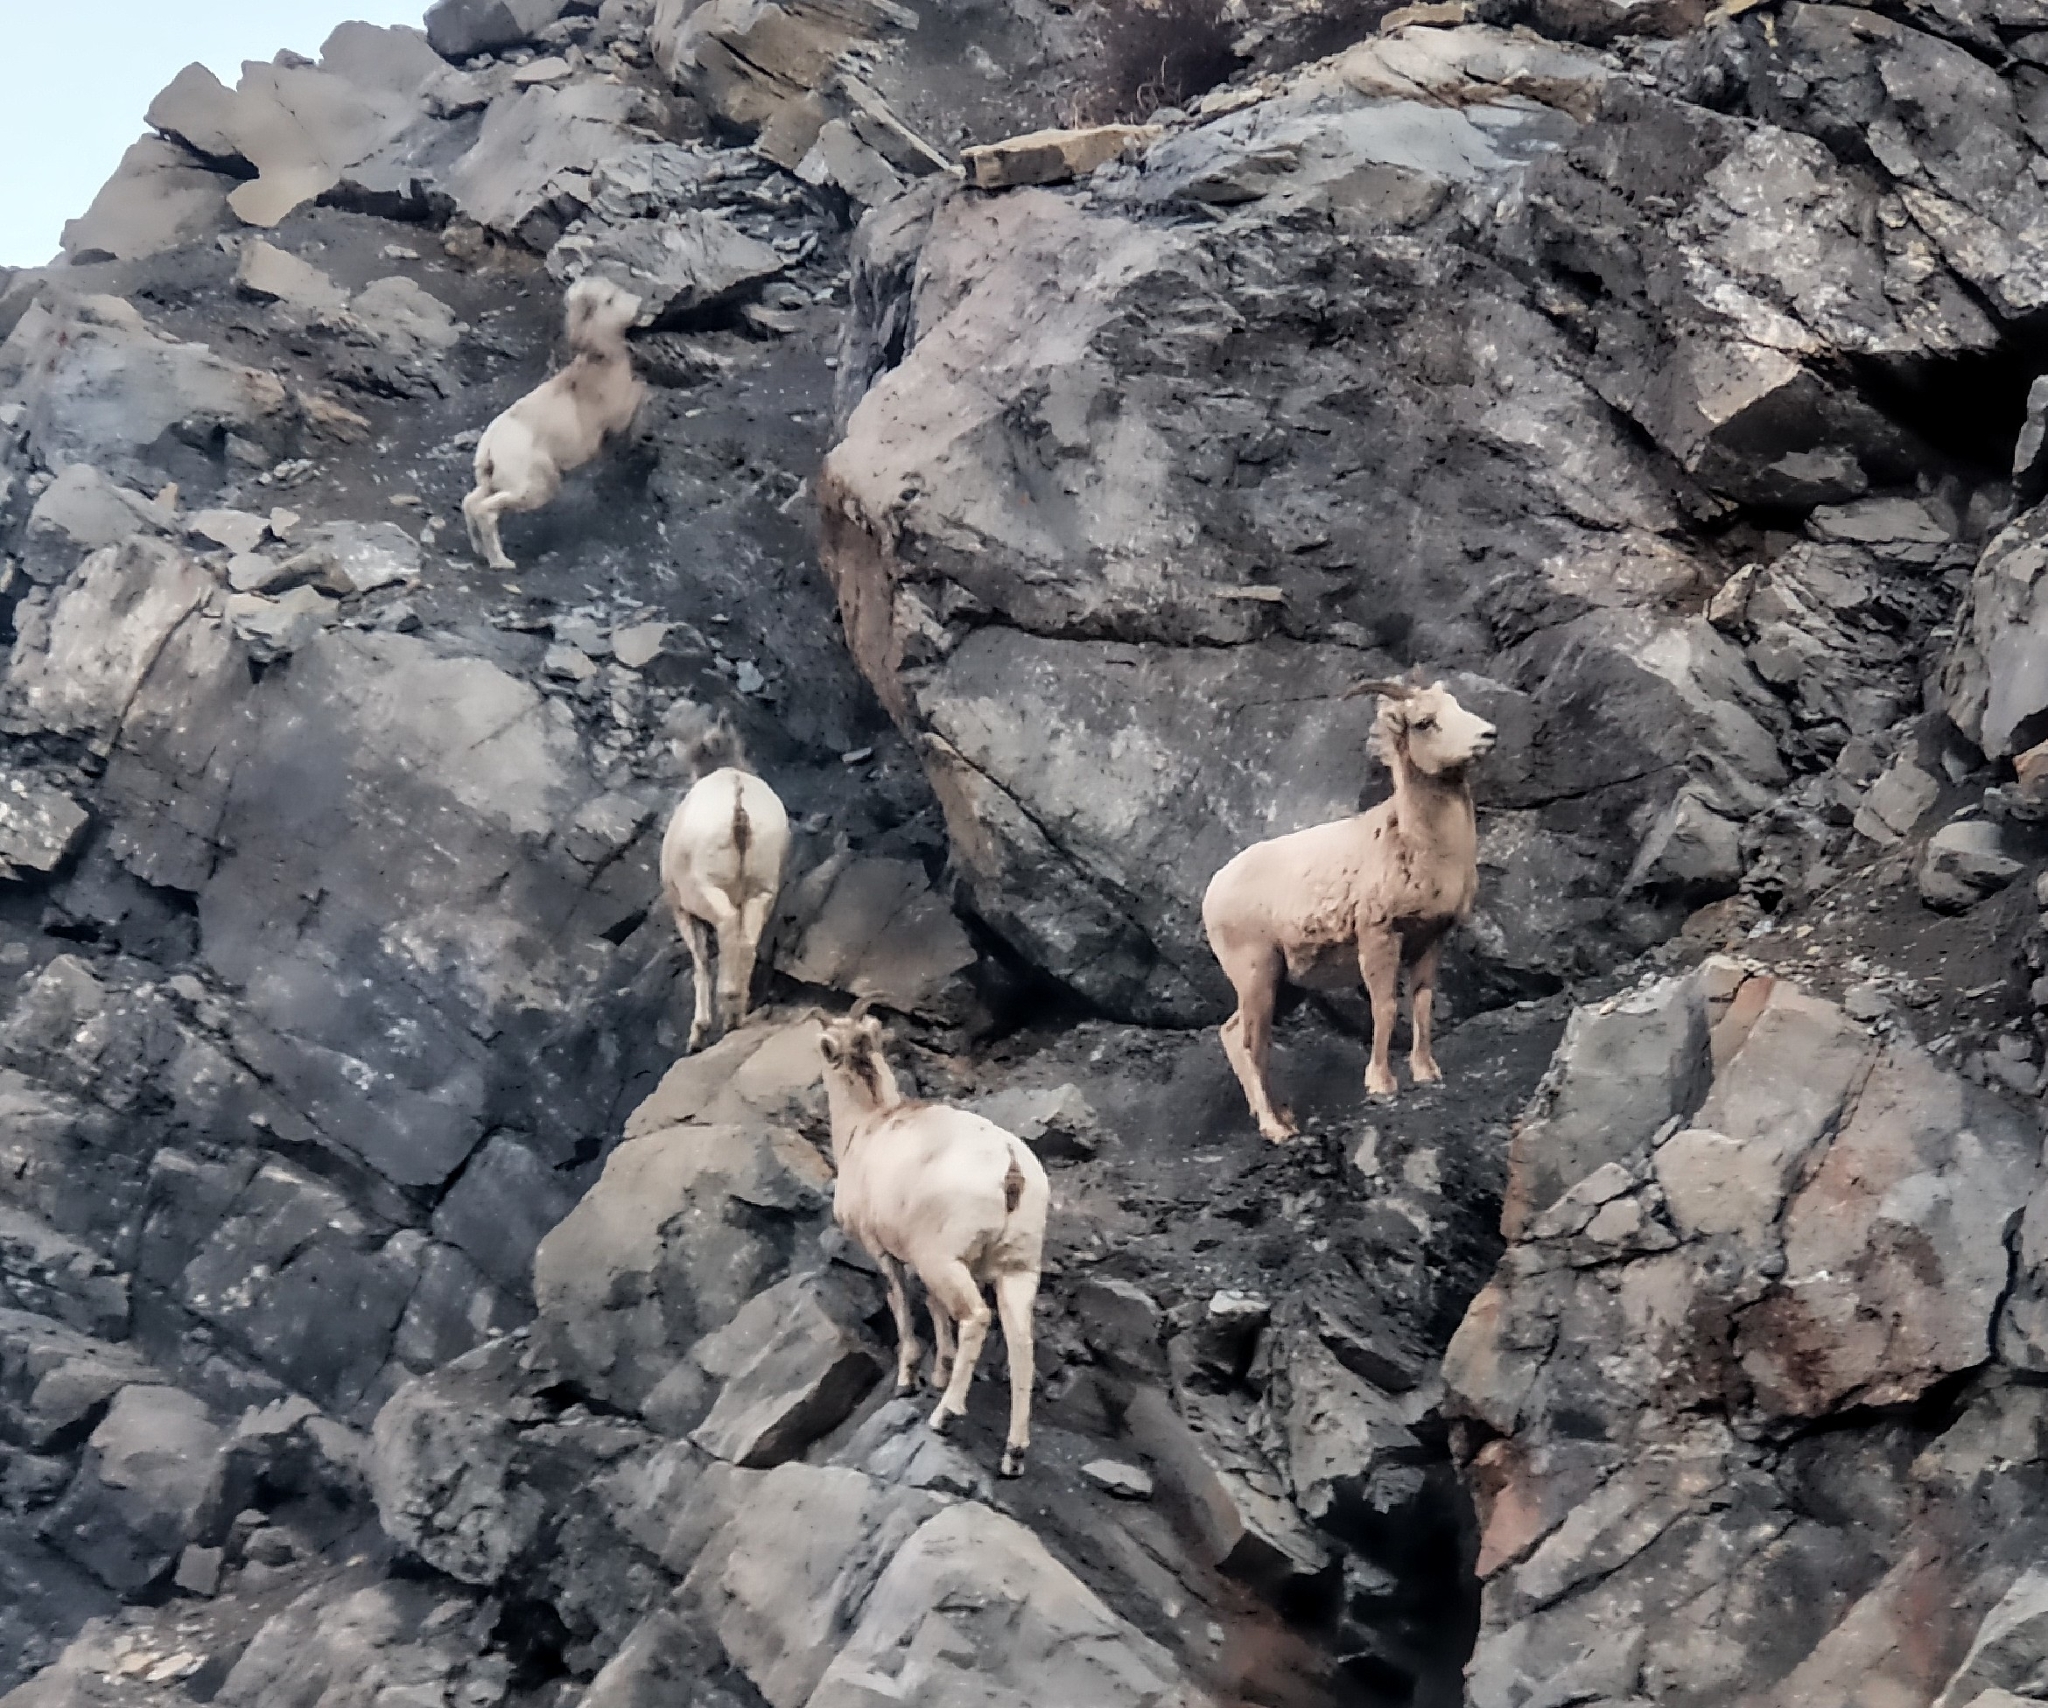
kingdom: Animalia
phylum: Chordata
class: Mammalia
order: Artiodactyla
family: Bovidae
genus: Ovis
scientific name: Ovis canadensis
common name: Bighorn sheep
